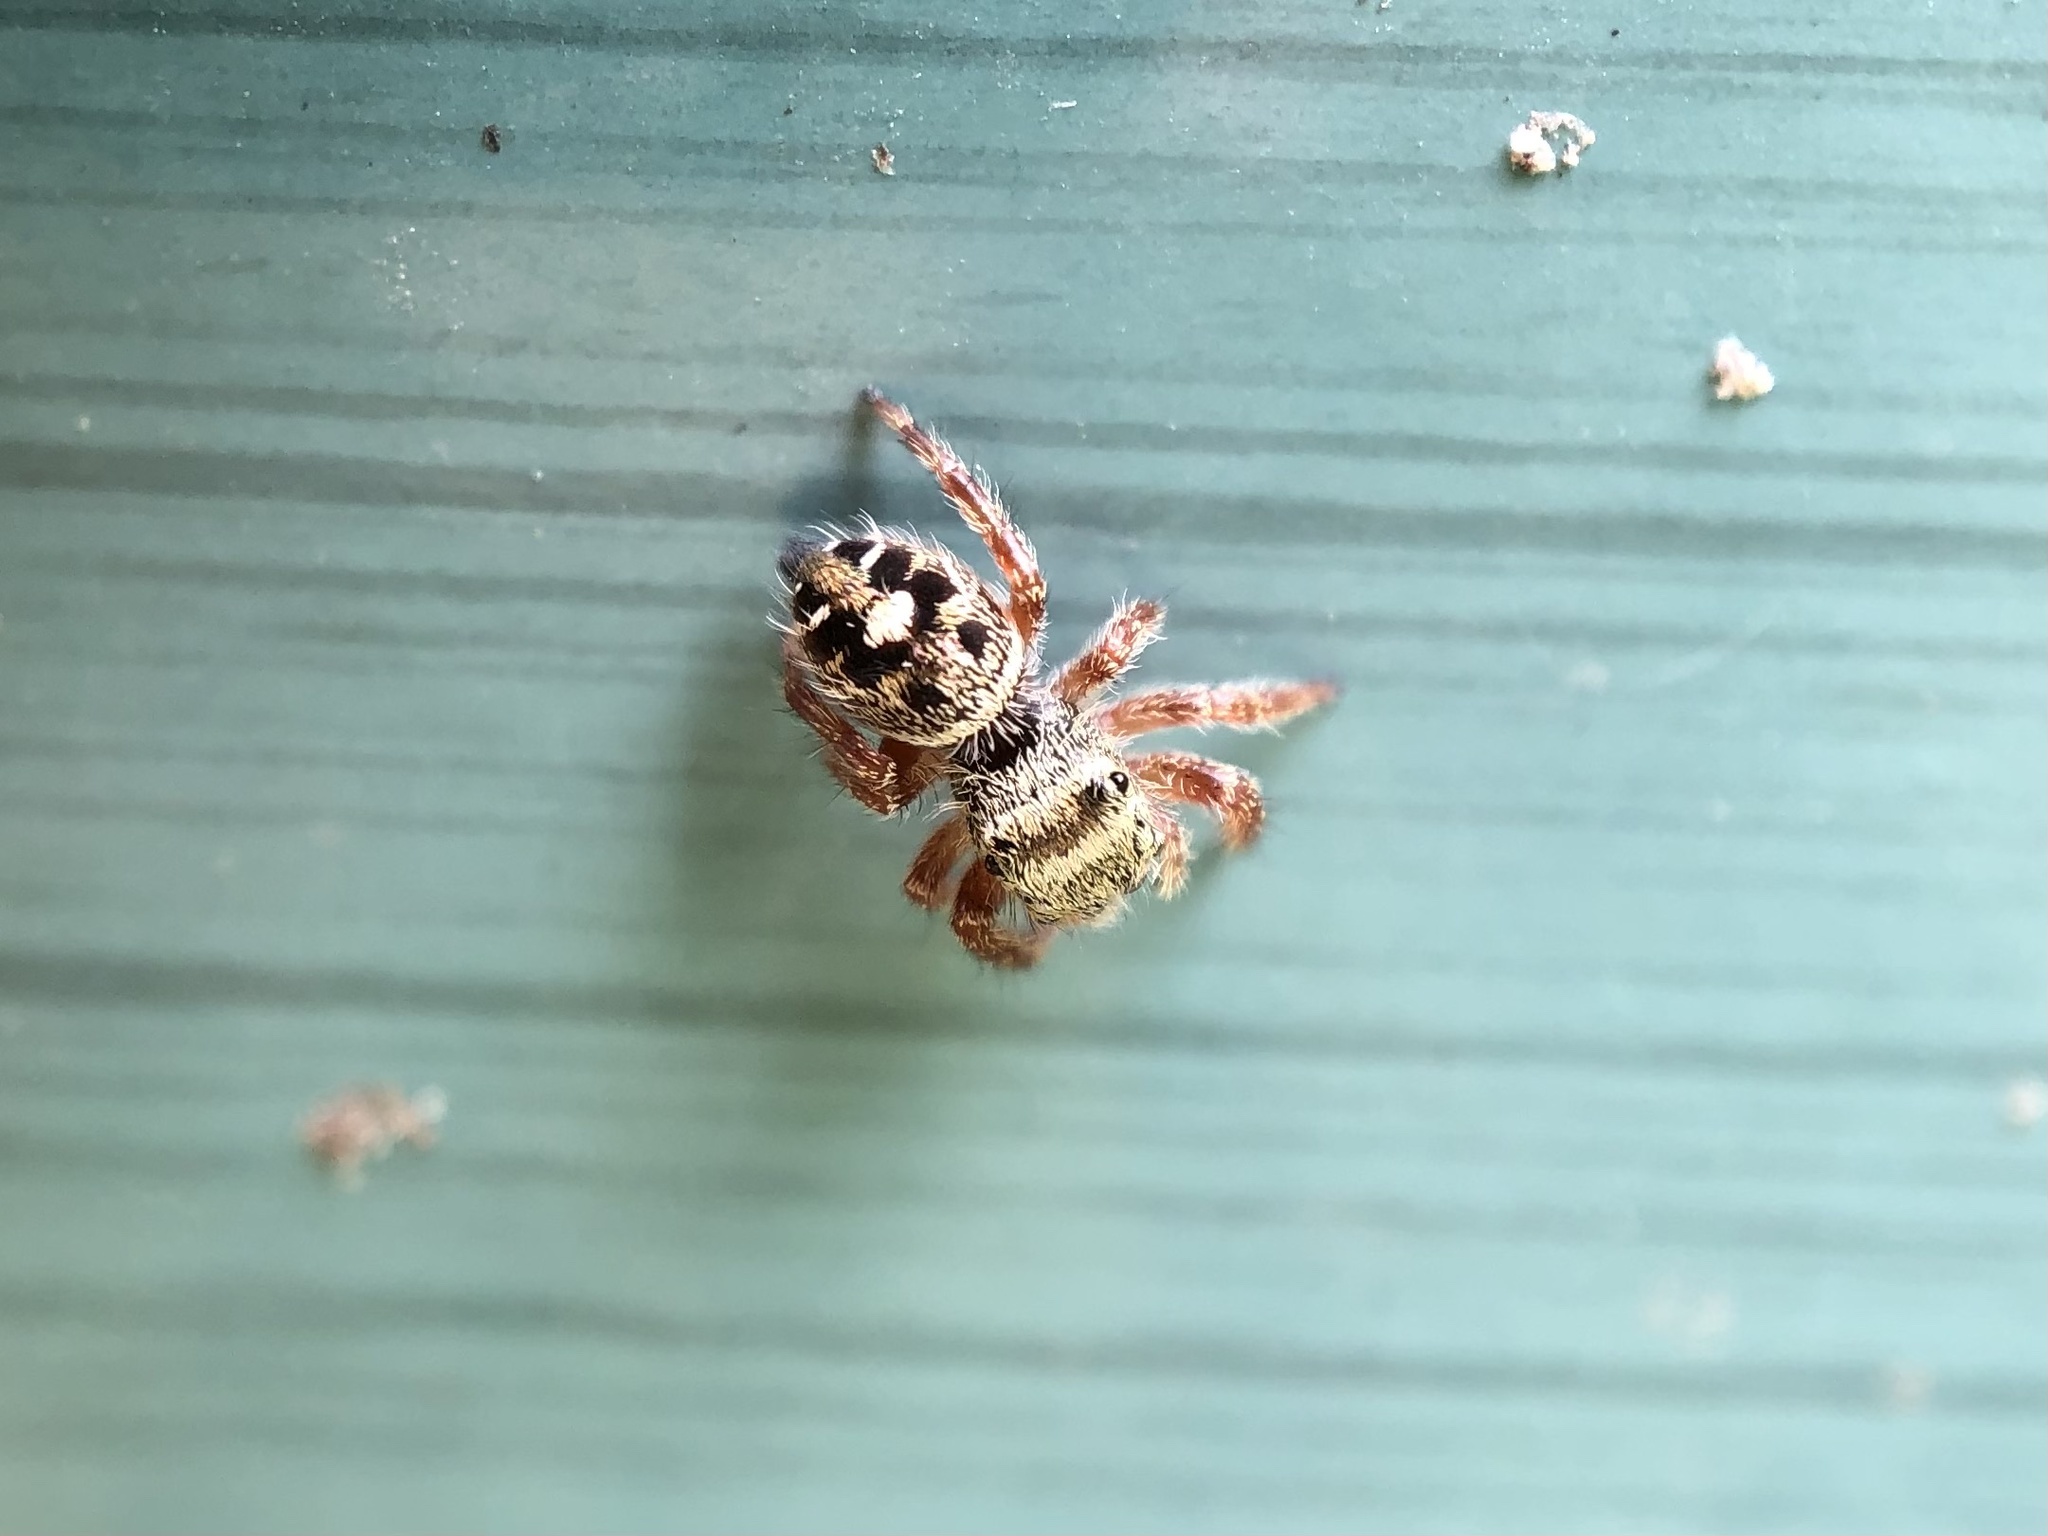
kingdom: Animalia
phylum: Arthropoda
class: Arachnida
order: Araneae
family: Salticidae
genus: Phidippus
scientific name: Phidippus audax
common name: Bold jumper
